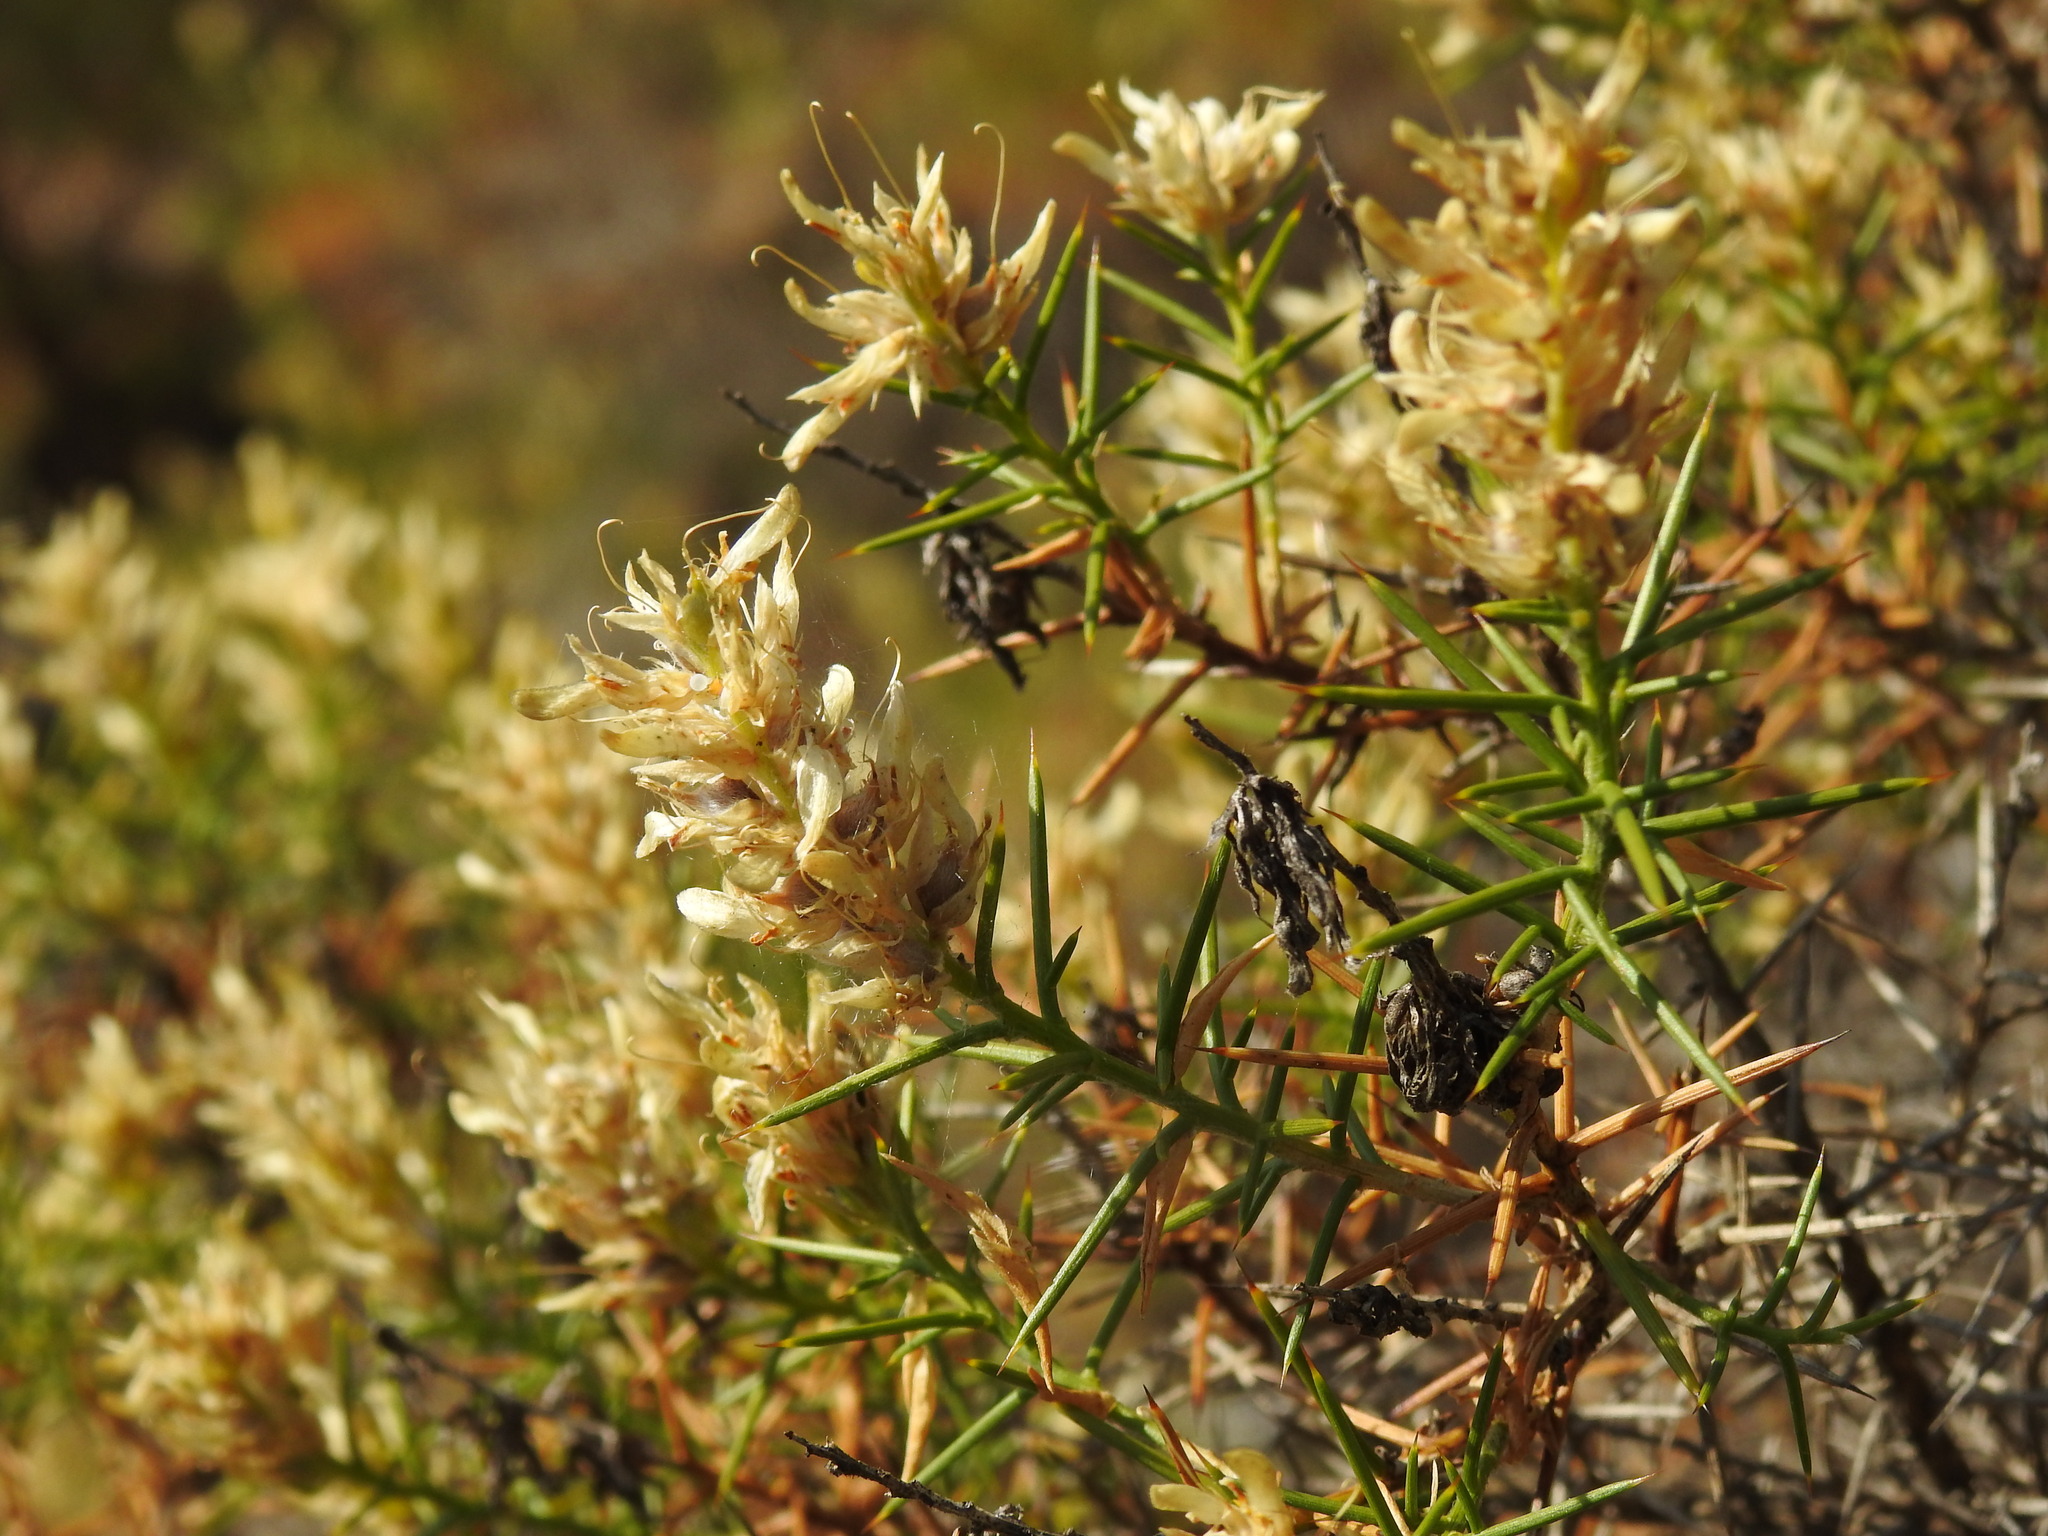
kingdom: Plantae
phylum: Tracheophyta
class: Magnoliopsida
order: Fabales
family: Fabaceae
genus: Genista
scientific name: Genista hirsuta
